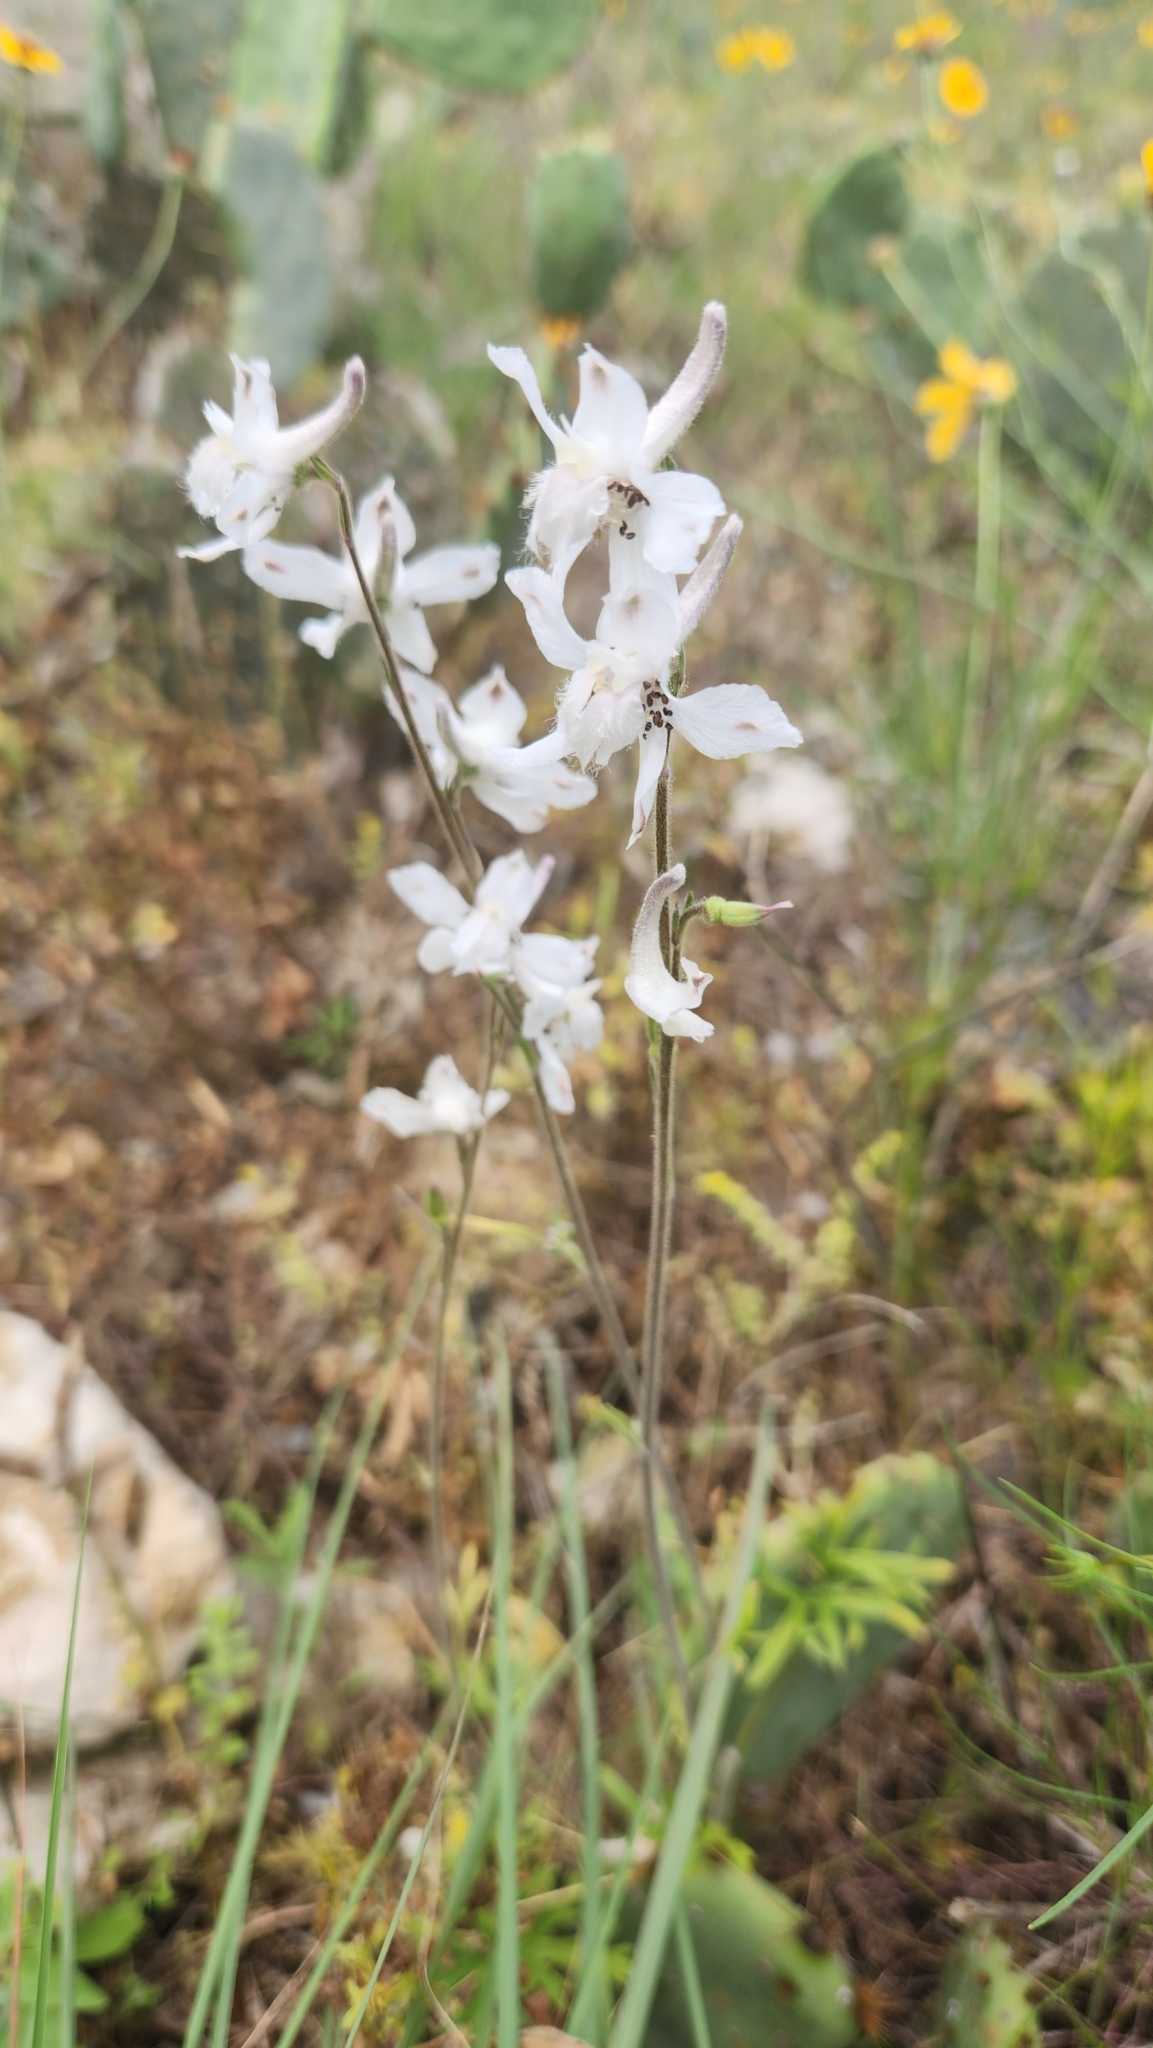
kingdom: Plantae
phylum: Tracheophyta
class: Magnoliopsida
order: Ranunculales
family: Ranunculaceae
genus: Delphinium
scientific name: Delphinium carolinianum
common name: Carolina larkspur
